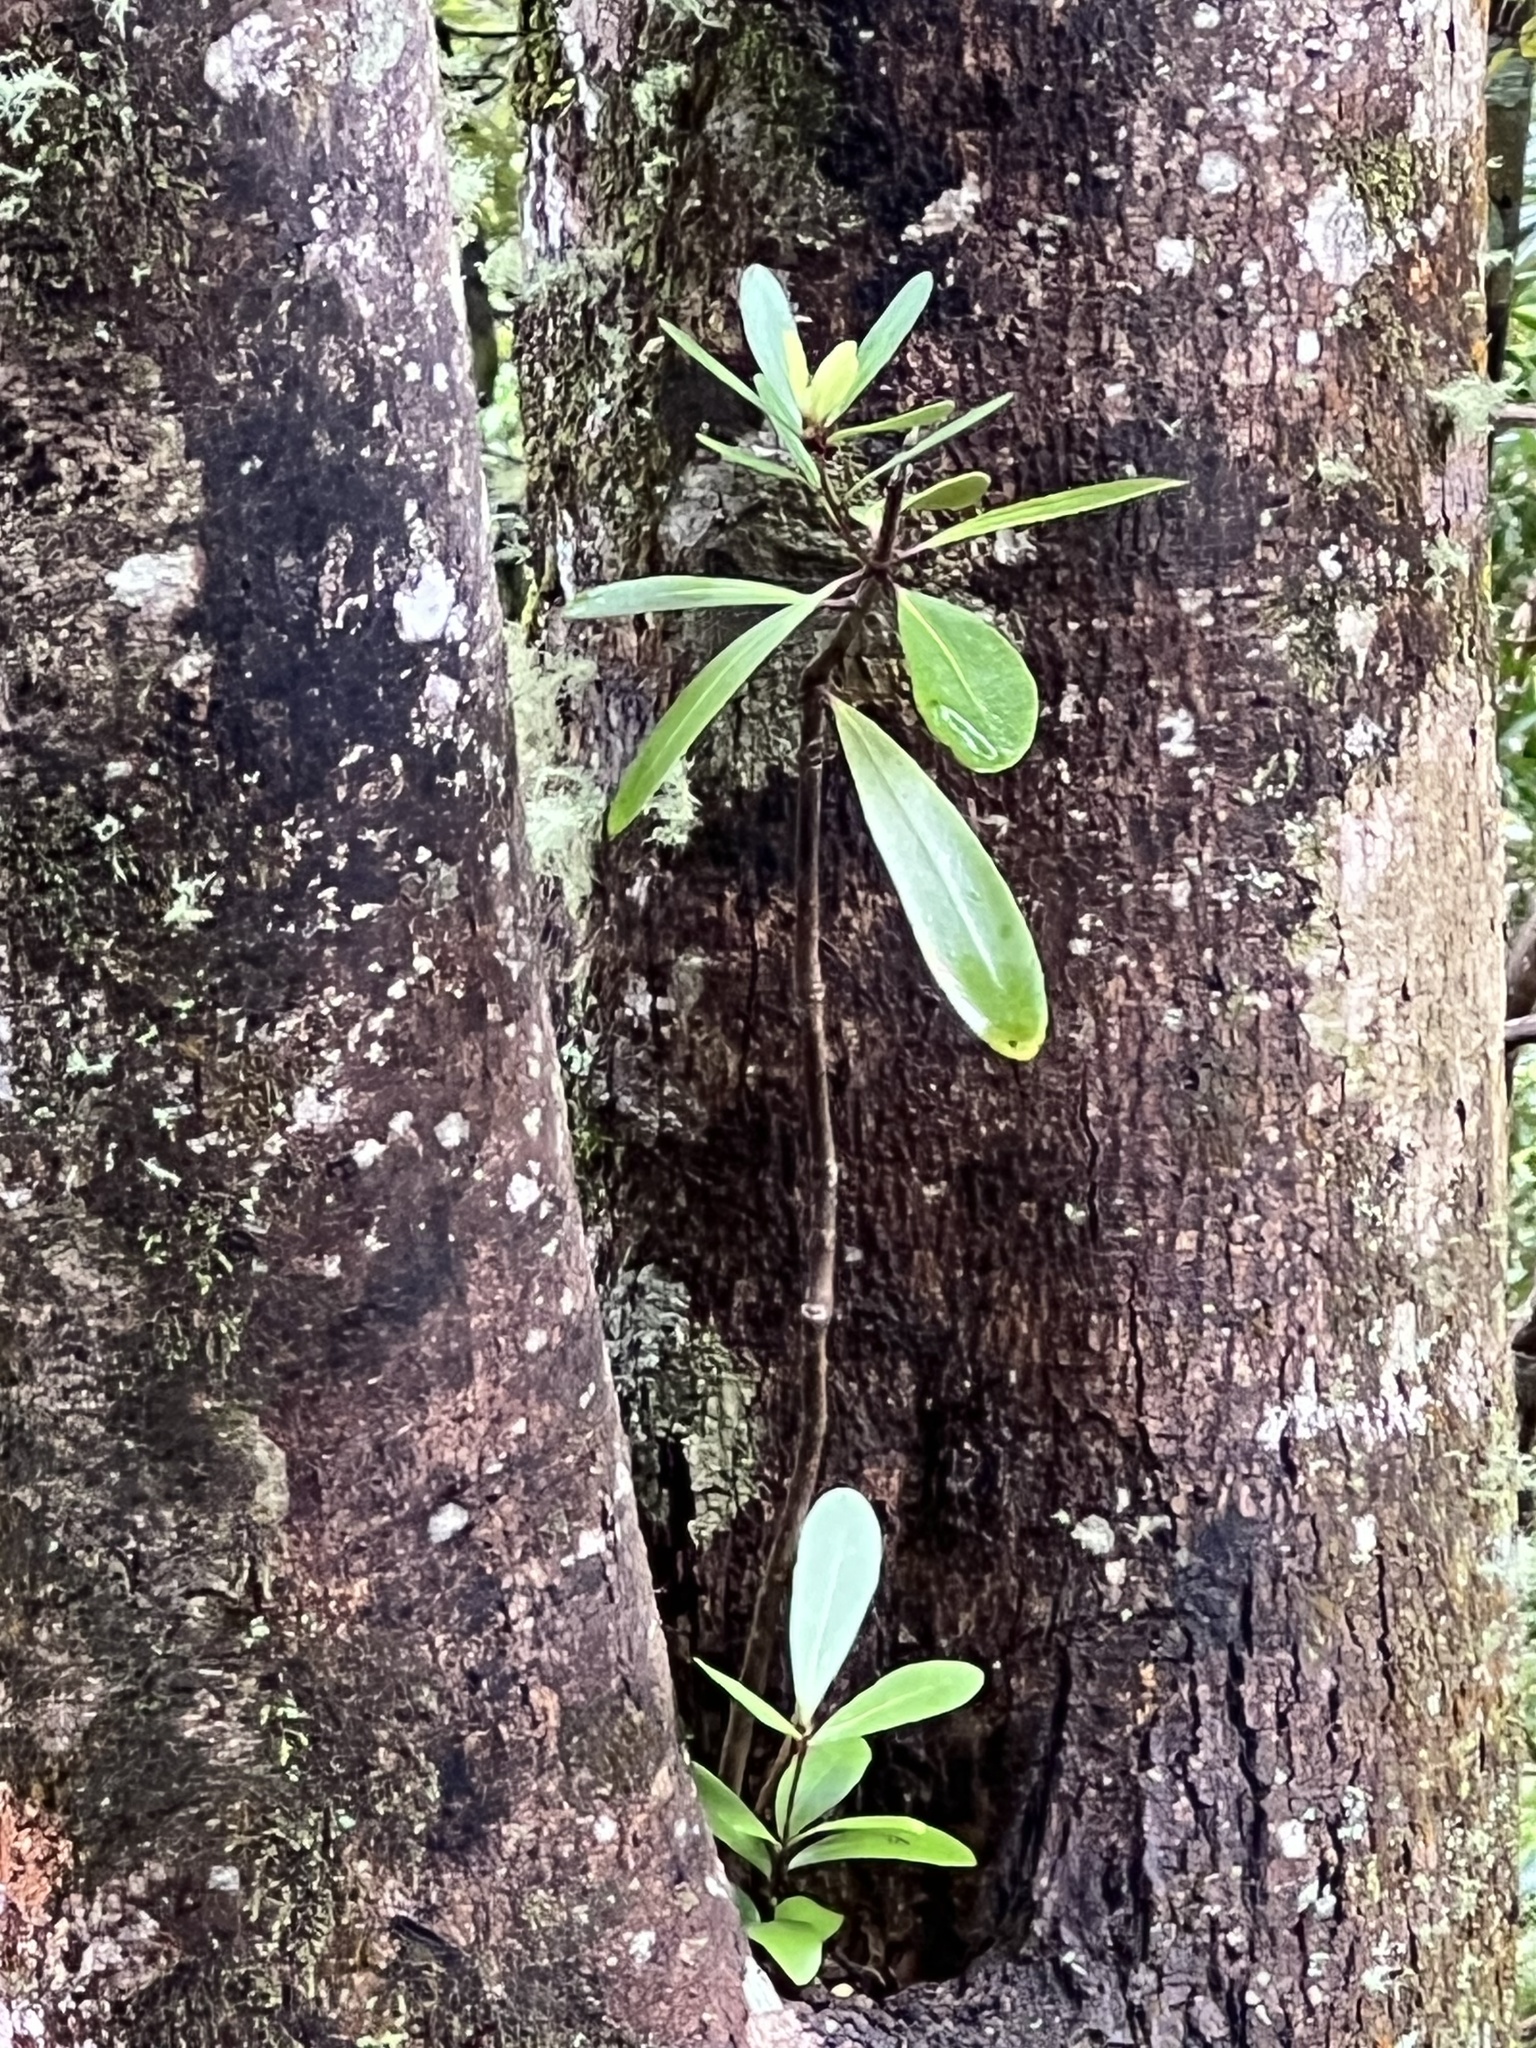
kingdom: Plantae
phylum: Tracheophyta
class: Magnoliopsida
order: Apiales
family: Pittosporaceae
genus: Pittosporum
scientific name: Pittosporum kirkii
